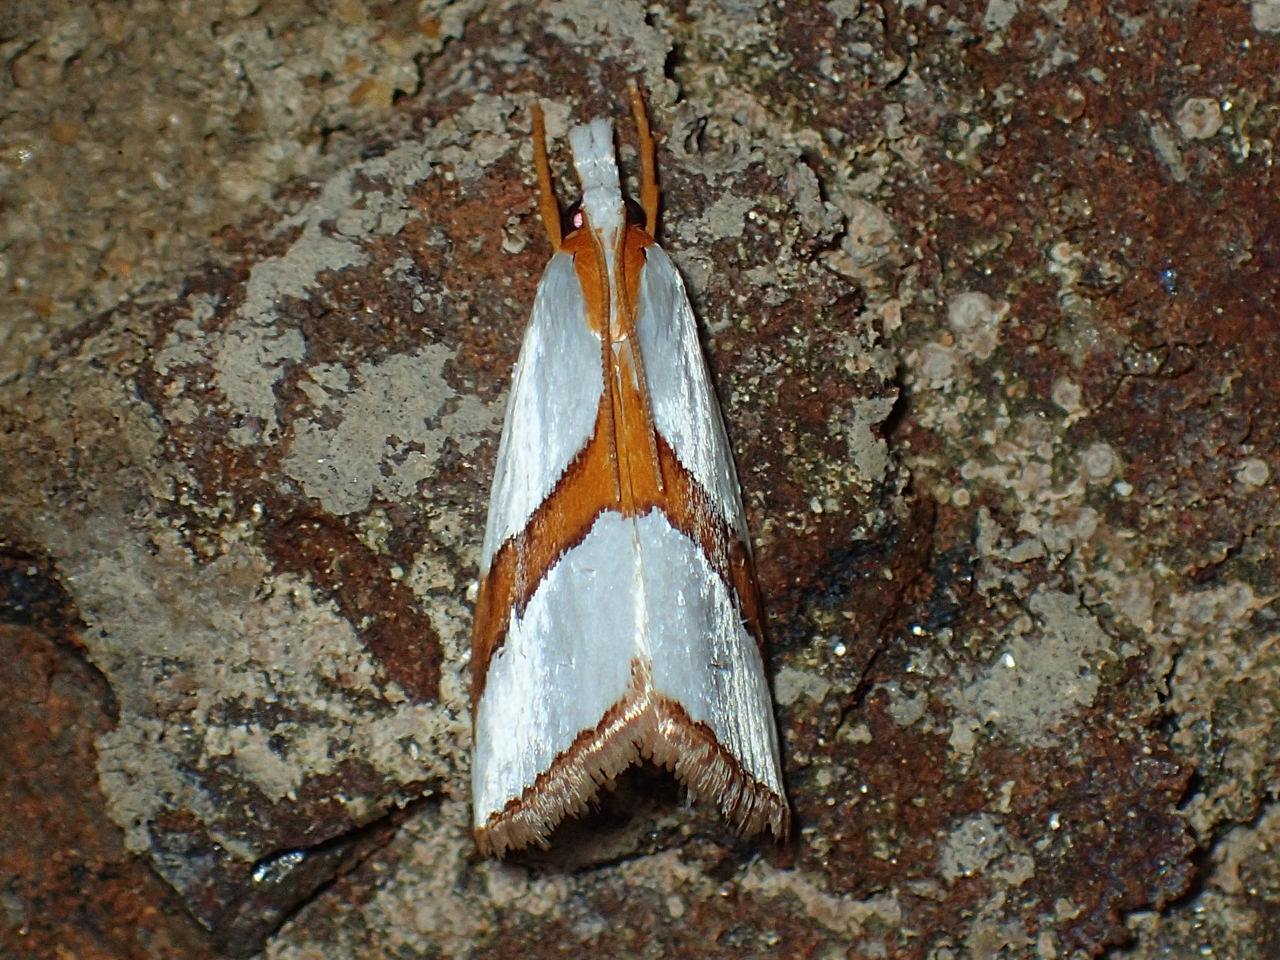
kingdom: Animalia
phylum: Arthropoda
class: Insecta
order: Lepidoptera
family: Crambidae
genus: Vaxi
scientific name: Vaxi critica
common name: Straight-lined vaxi moth
